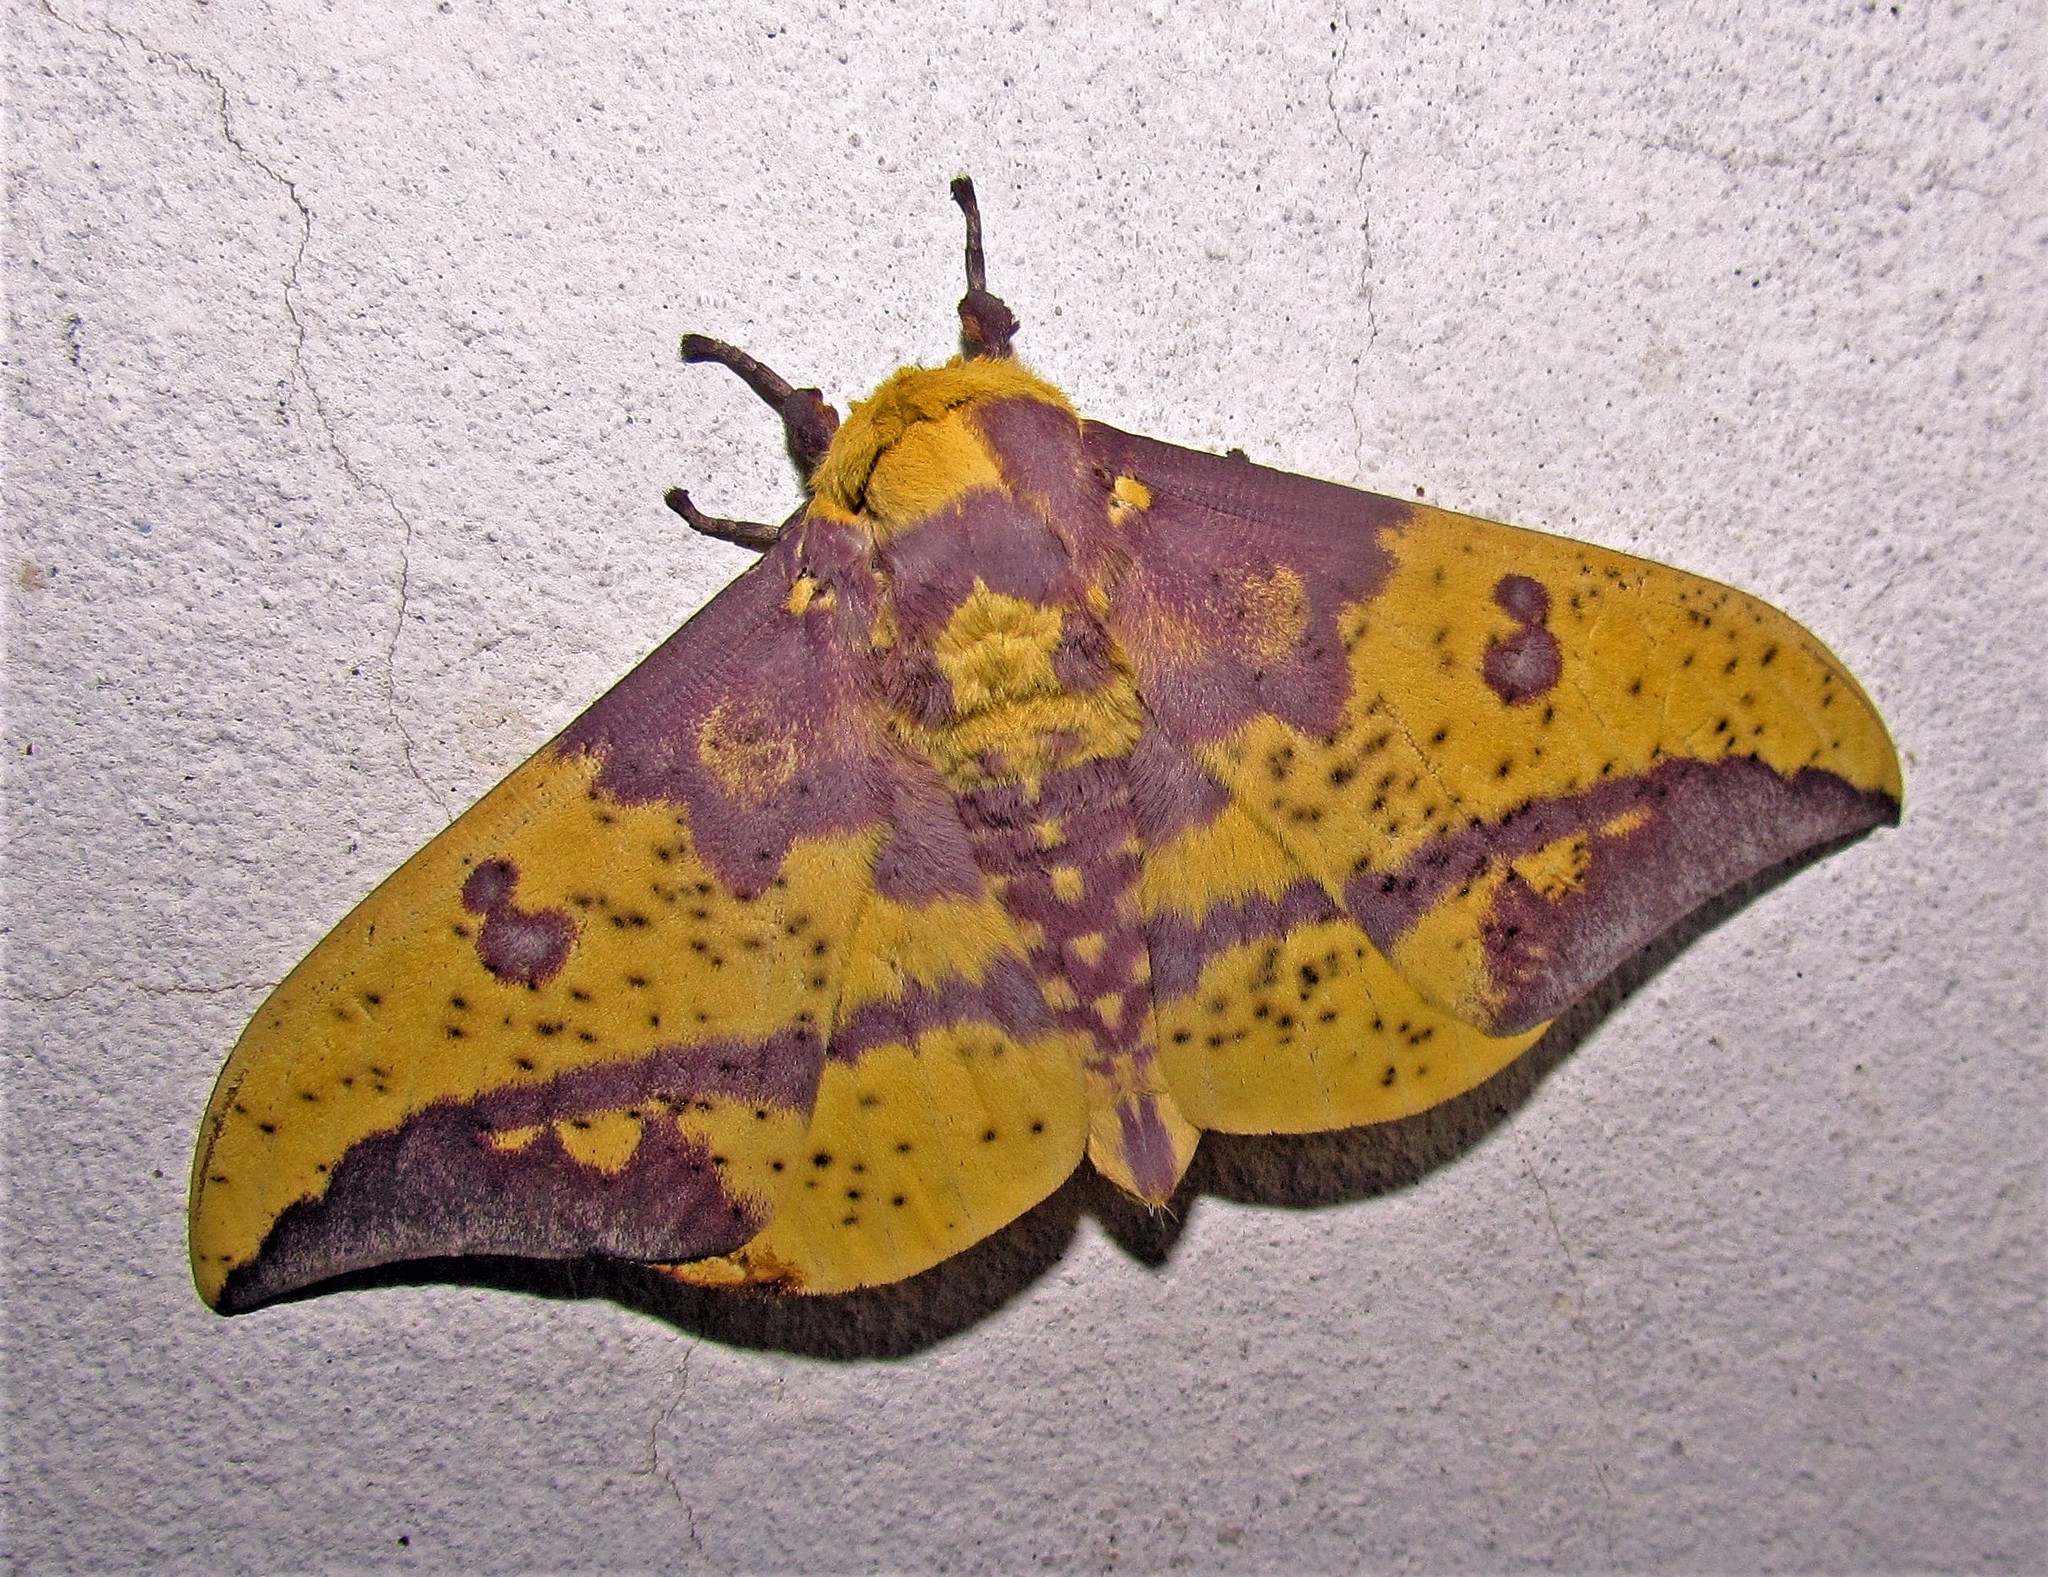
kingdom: Animalia
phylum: Arthropoda
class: Insecta
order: Lepidoptera
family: Saturniidae
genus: Eacles
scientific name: Eacles imperialis
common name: Imperial moth
